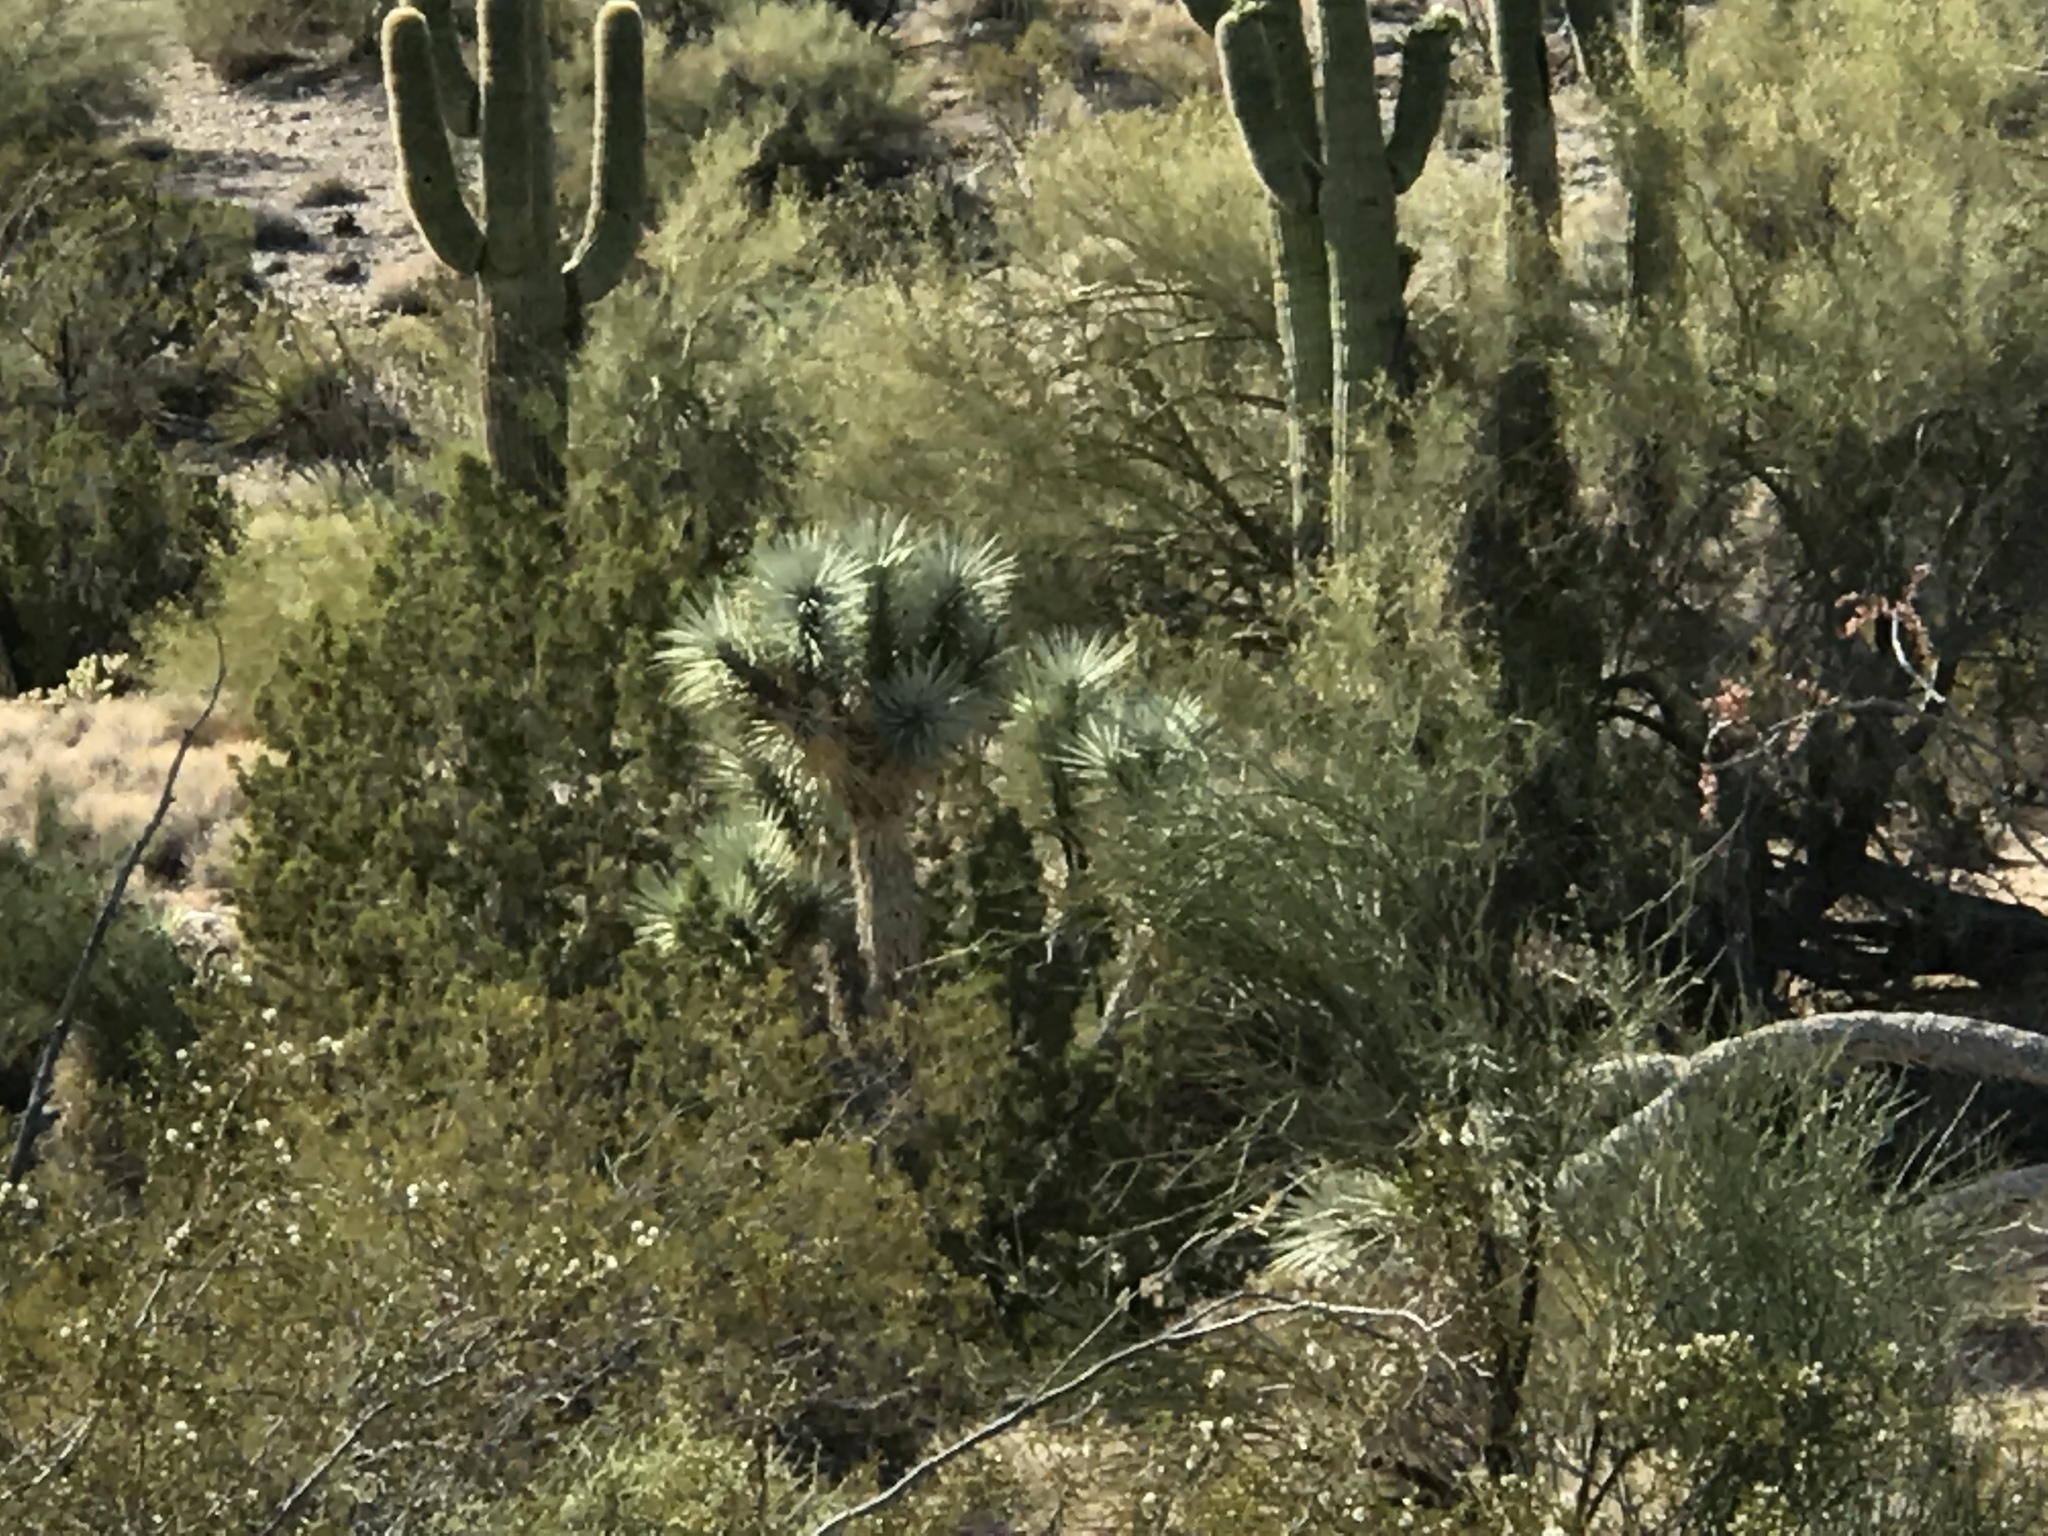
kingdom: Plantae
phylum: Tracheophyta
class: Liliopsida
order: Asparagales
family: Asparagaceae
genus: Yucca
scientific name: Yucca brevifolia
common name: Joshua tree
